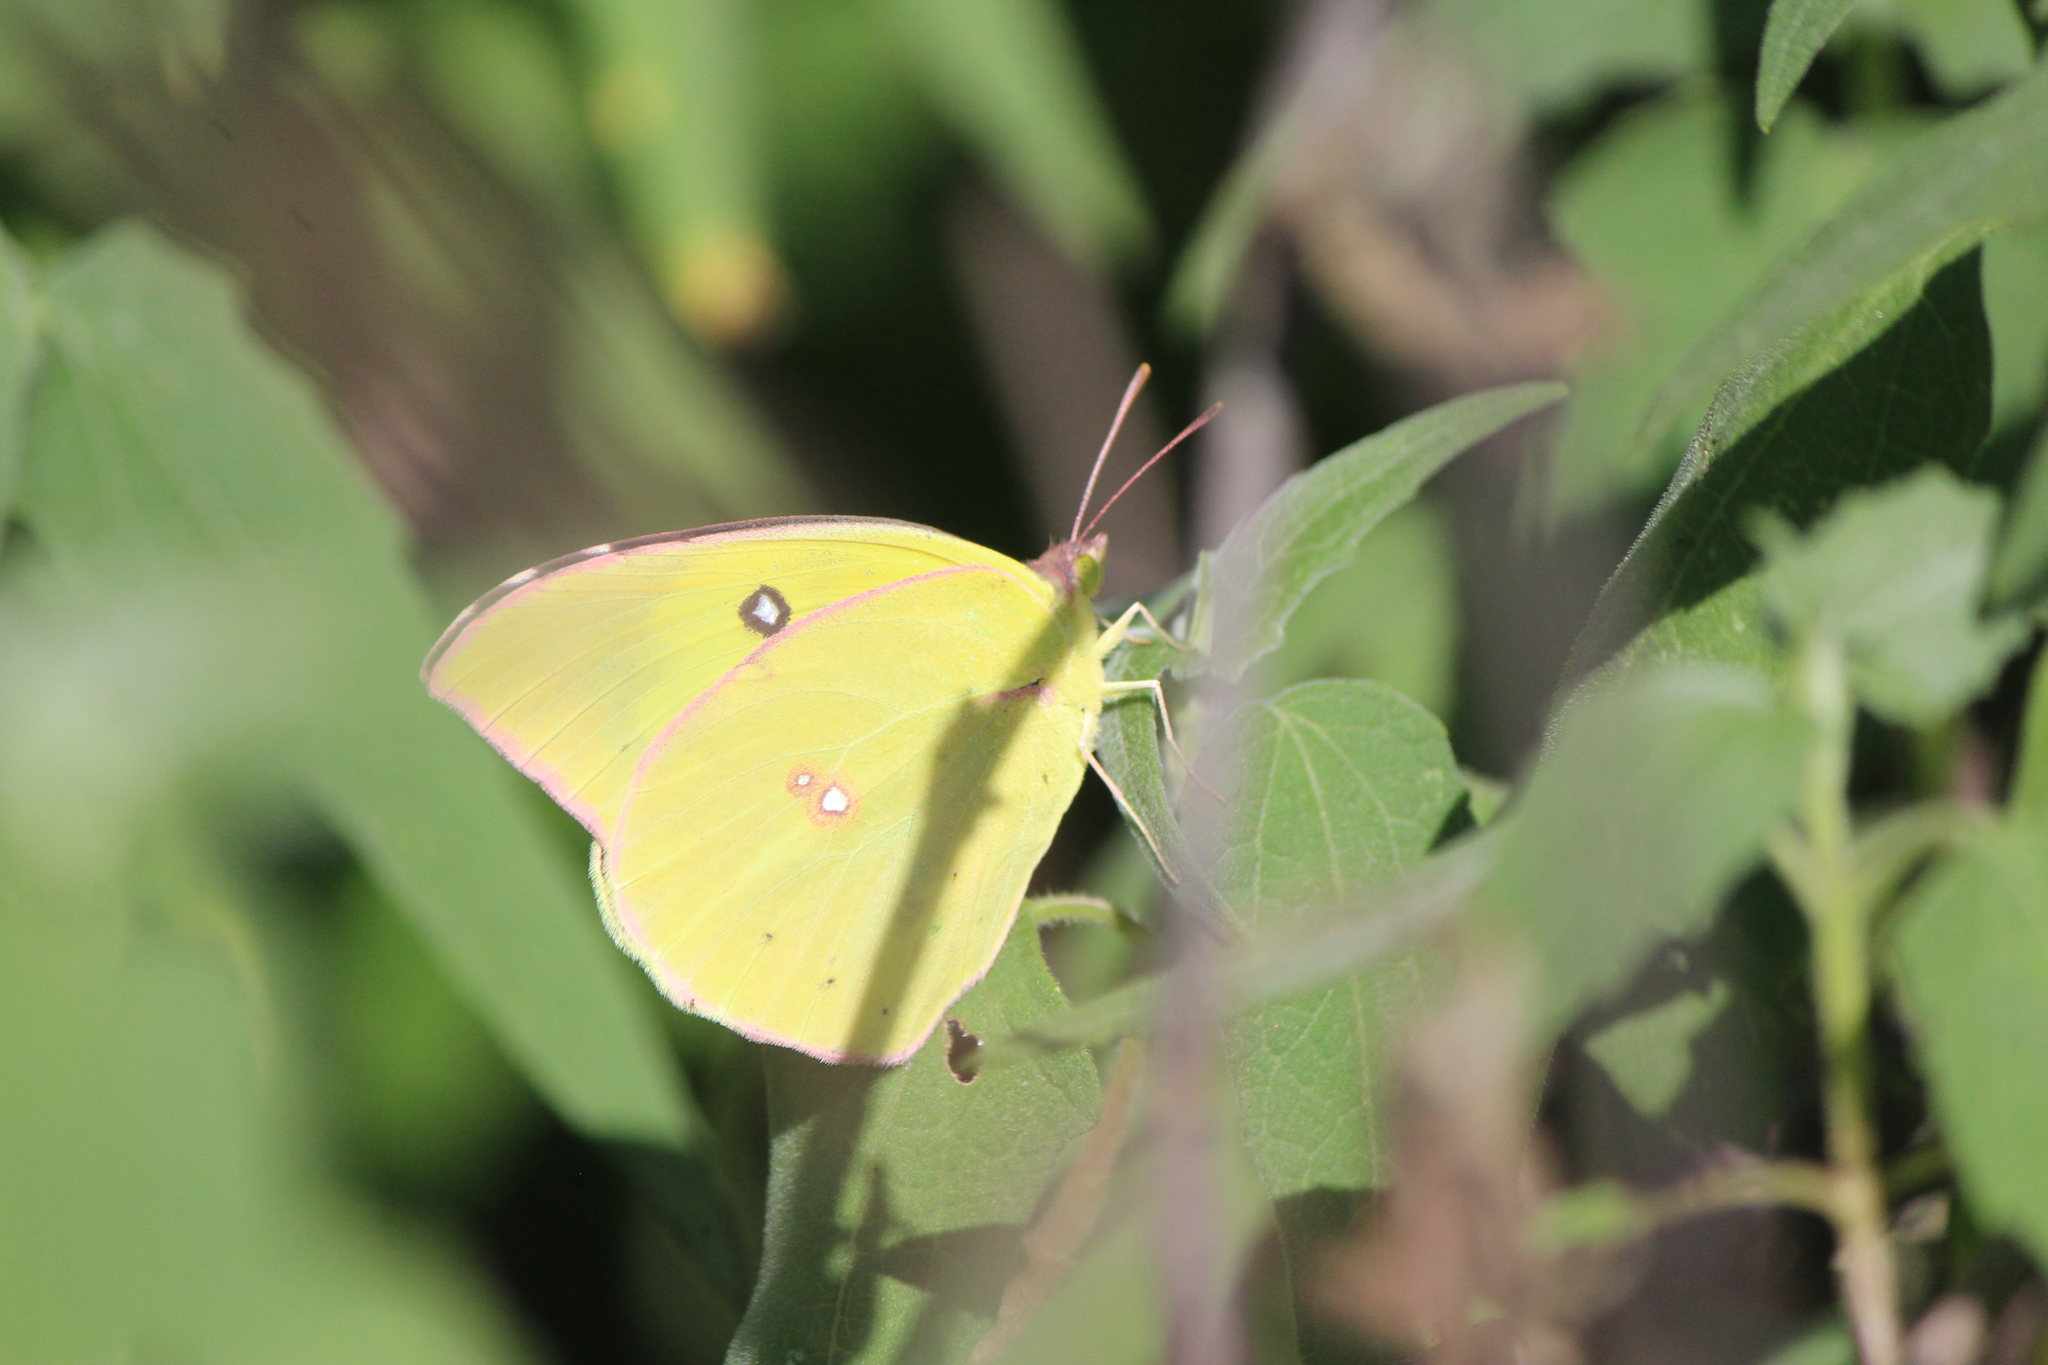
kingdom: Animalia
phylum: Arthropoda
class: Insecta
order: Lepidoptera
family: Pieridae
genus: Zerene
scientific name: Zerene cesonia
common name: Southern dogface
